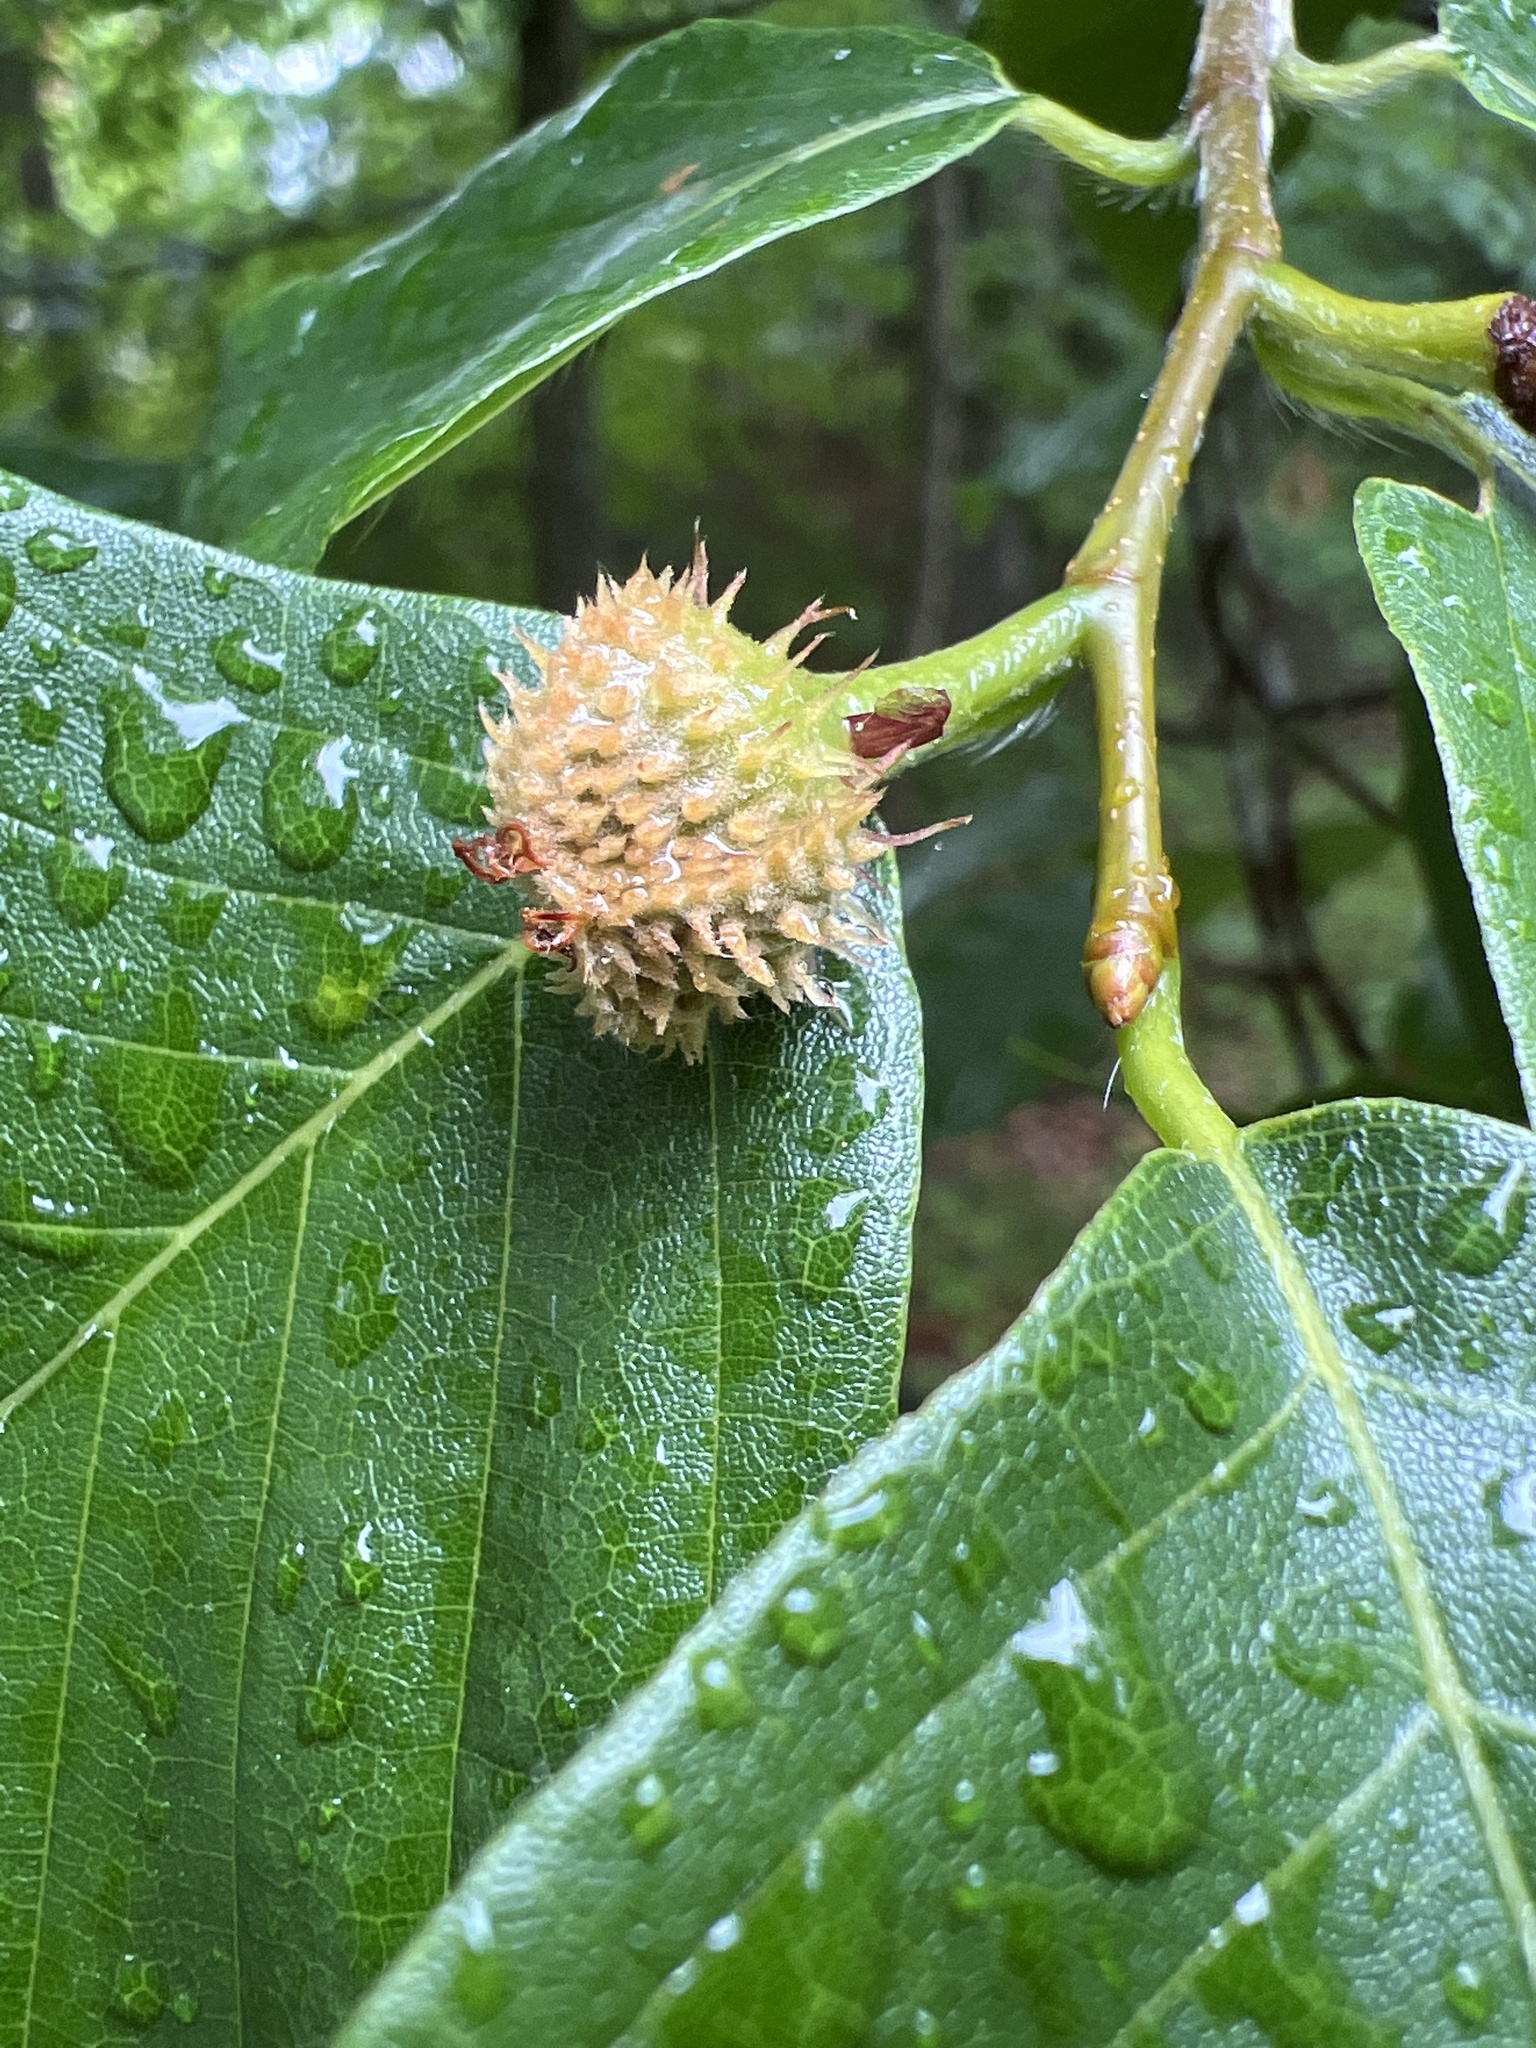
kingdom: Plantae
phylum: Tracheophyta
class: Magnoliopsida
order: Fagales
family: Fagaceae
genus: Fagus
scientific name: Fagus grandifolia
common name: American beech
